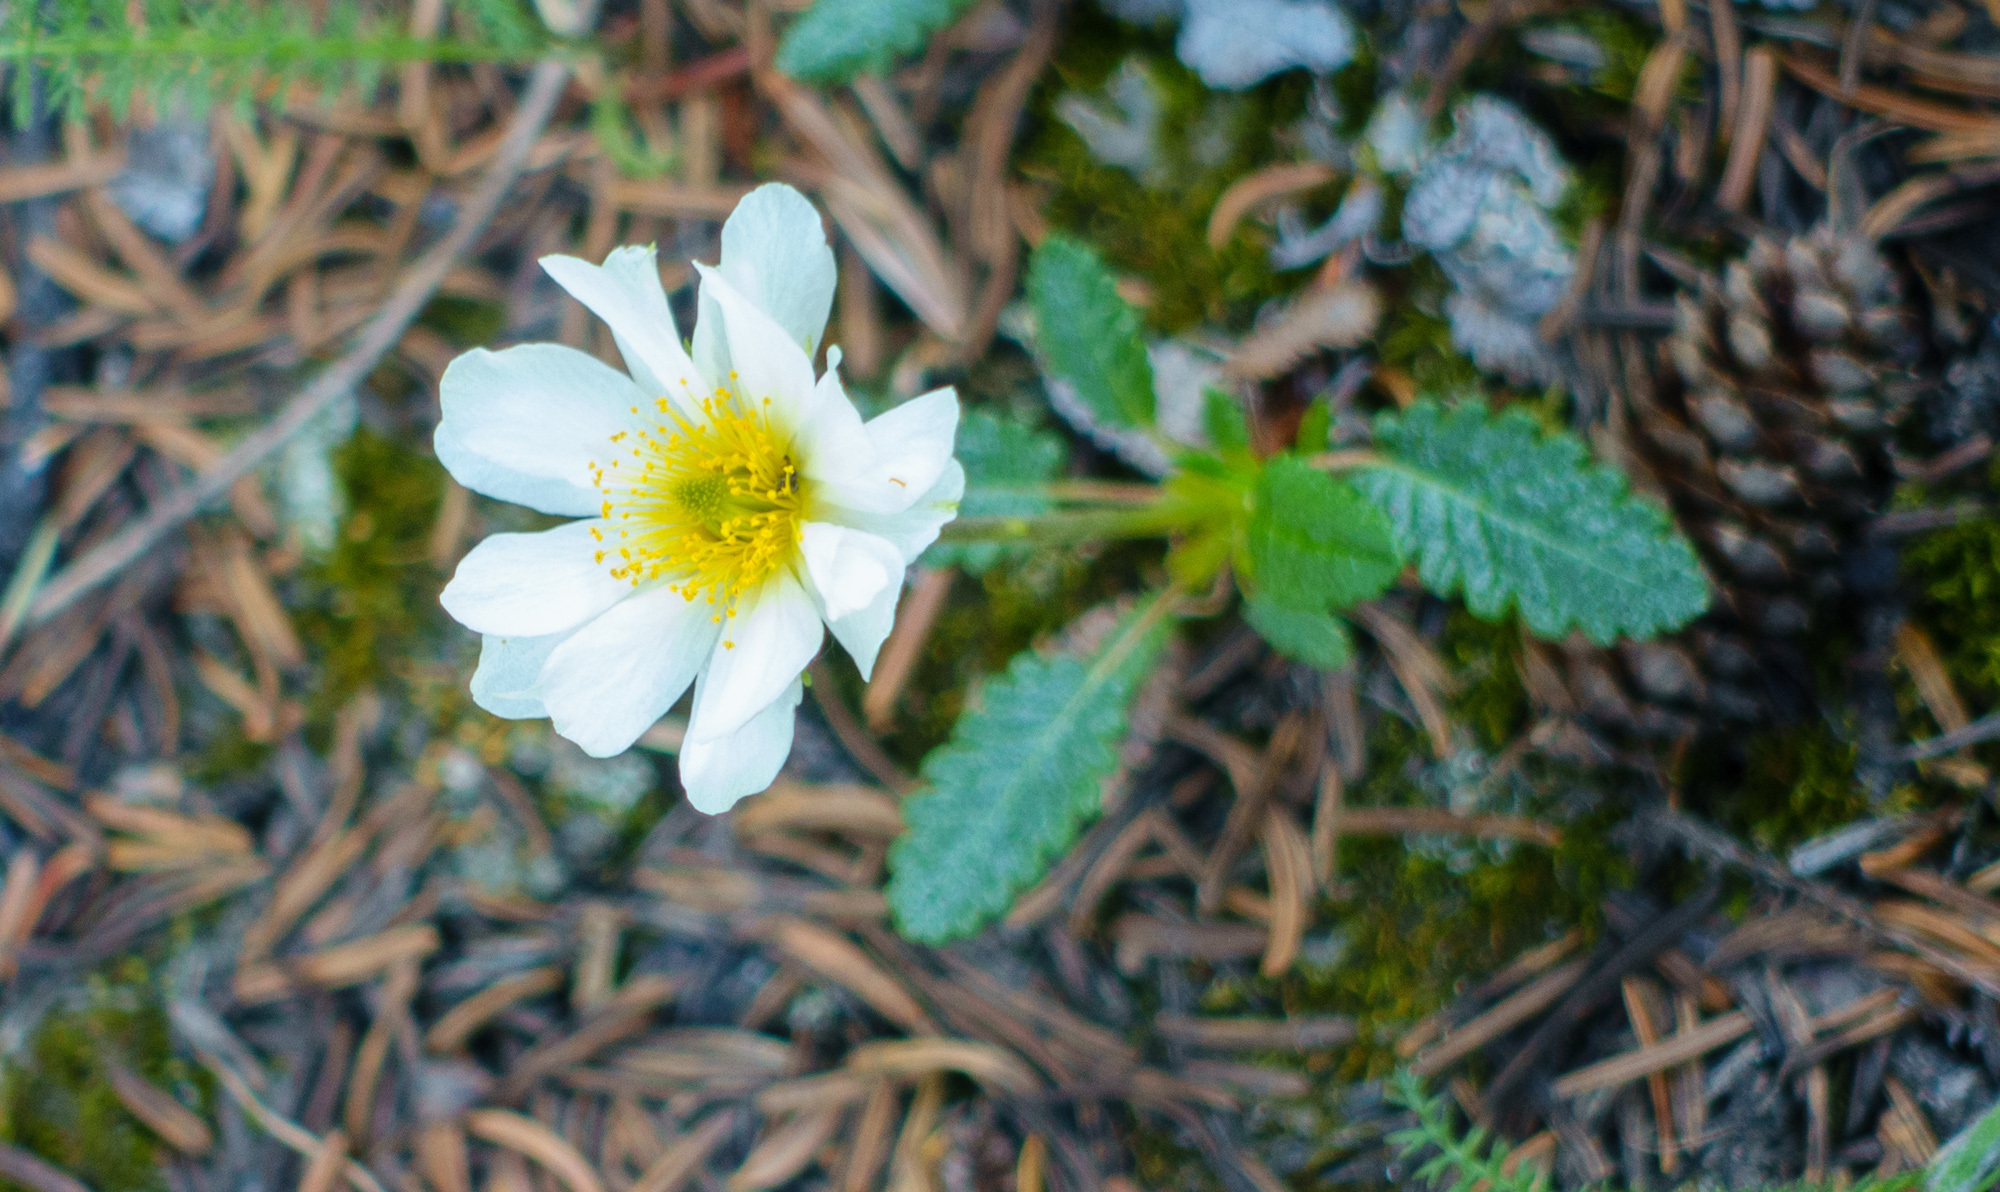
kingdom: Plantae
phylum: Tracheophyta
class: Magnoliopsida
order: Rosales
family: Rosaceae
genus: Dryas
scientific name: Dryas octopetala
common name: Eight-petal mountain-avens
